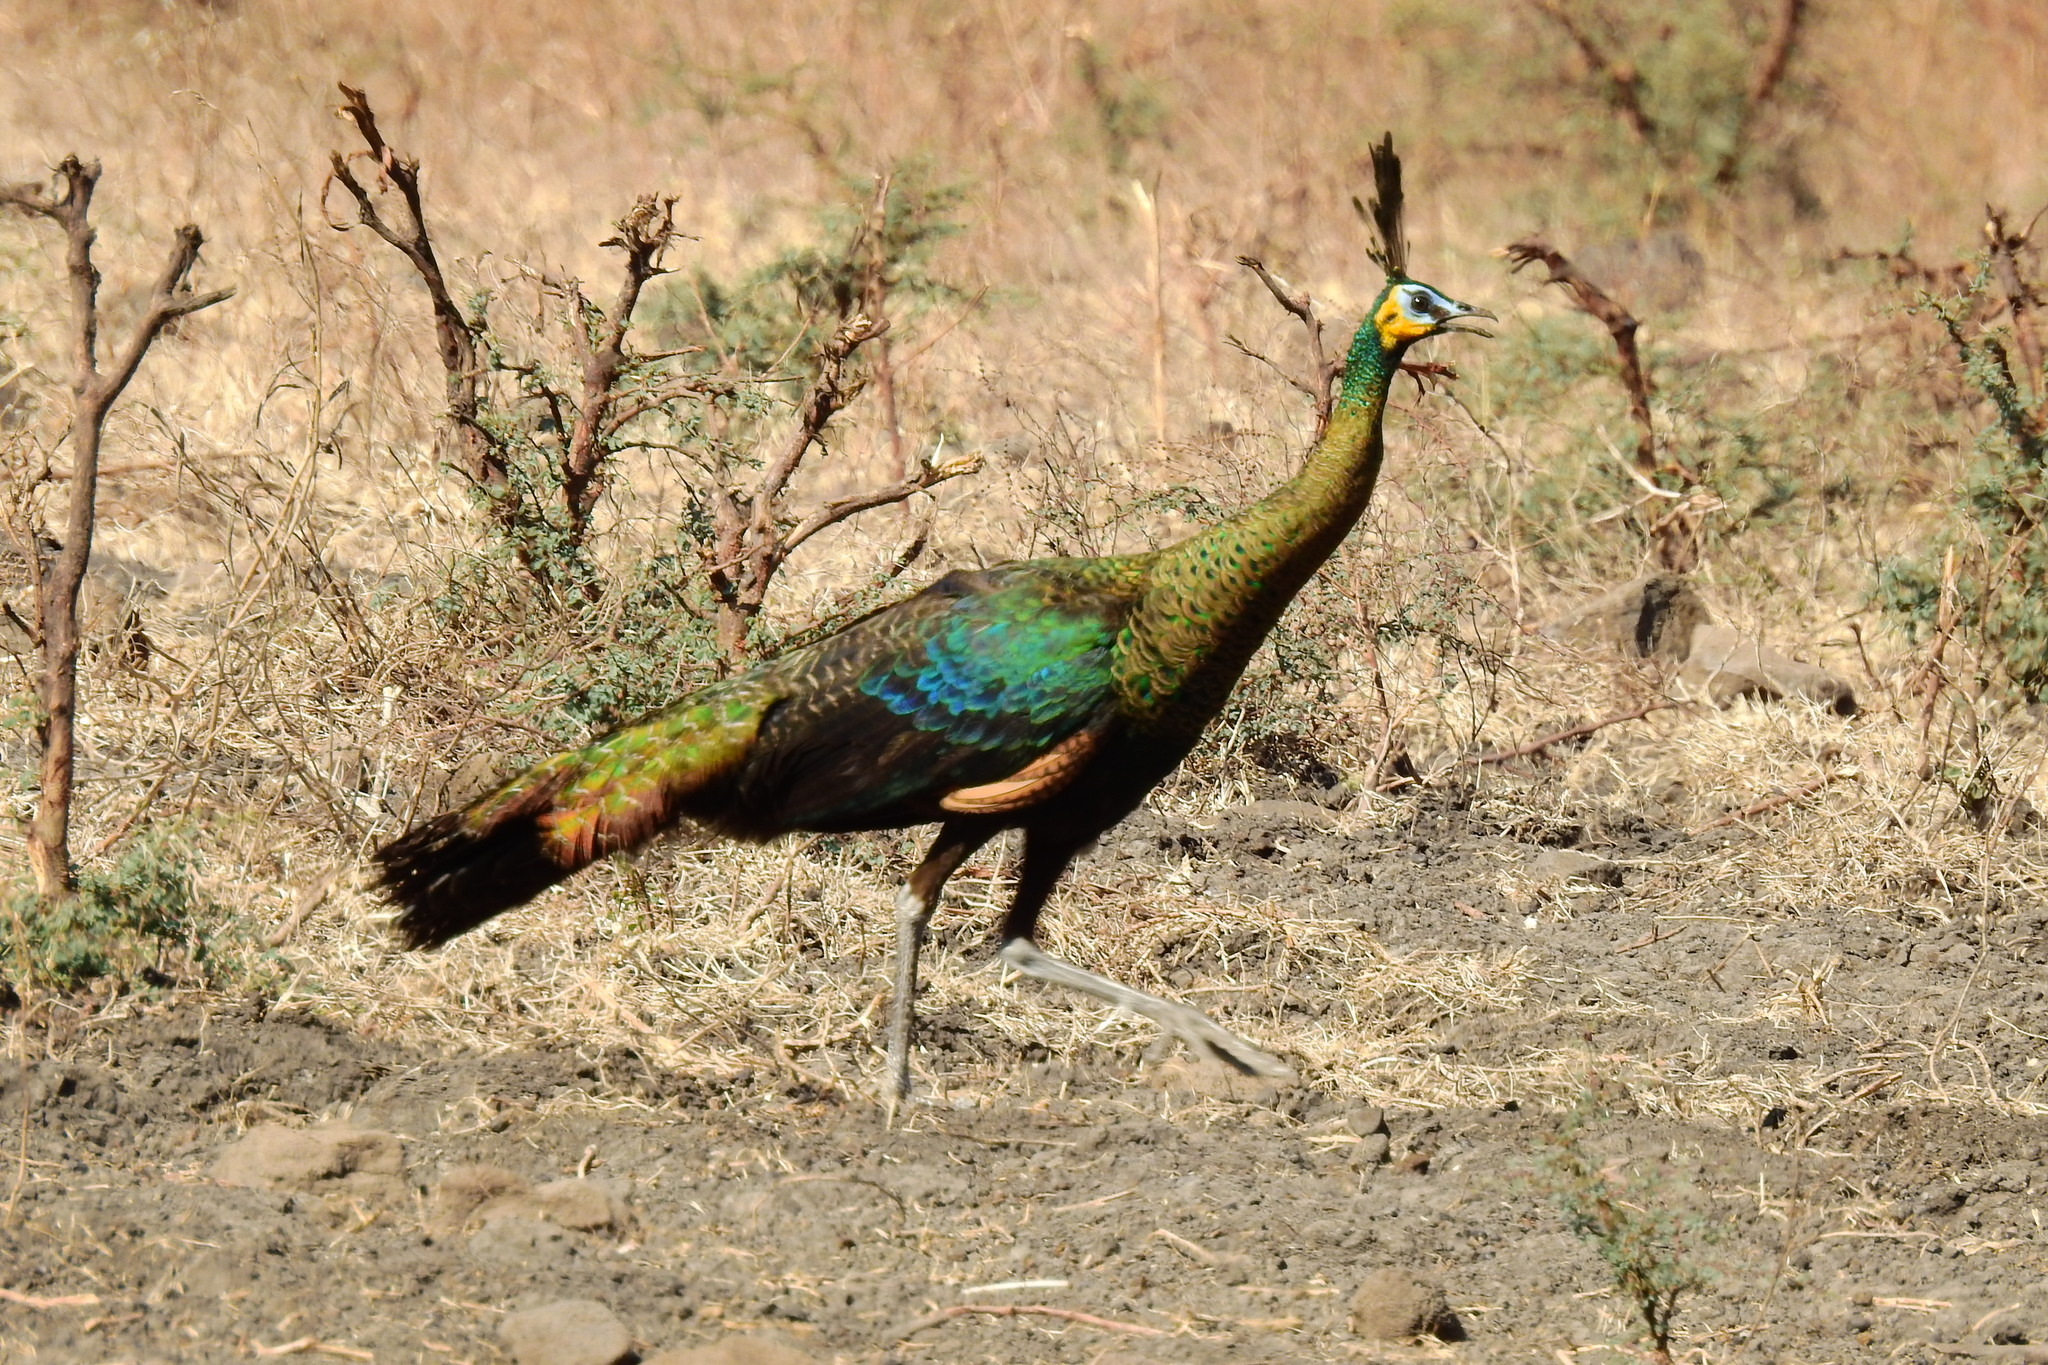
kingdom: Animalia
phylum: Chordata
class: Aves
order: Galliformes
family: Phasianidae
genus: Pavo
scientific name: Pavo muticus
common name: Green peafowl
